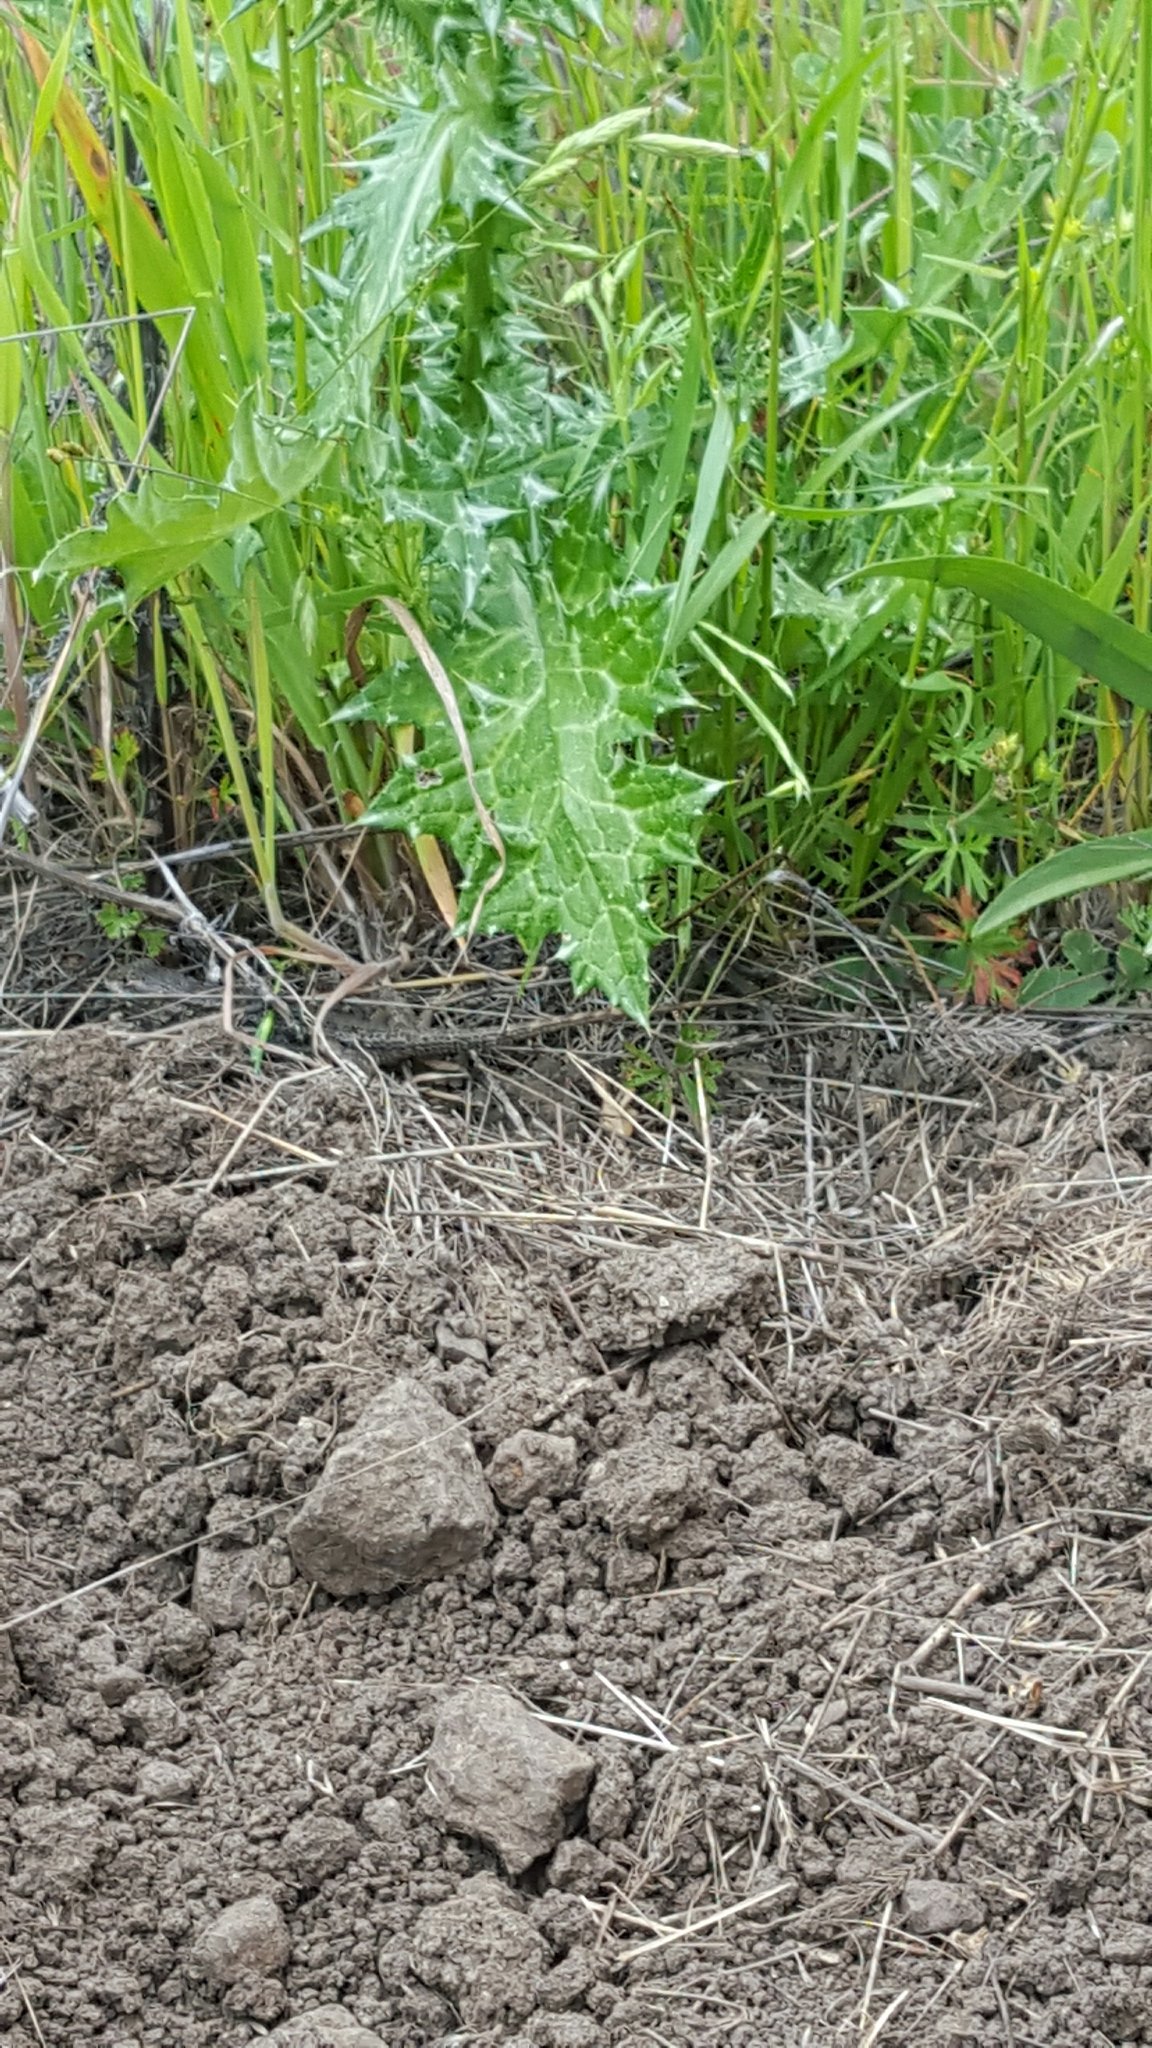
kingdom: Animalia
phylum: Chordata
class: Squamata
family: Phrynosomatidae
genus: Sceloporus
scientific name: Sceloporus occidentalis
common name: Western fence lizard
